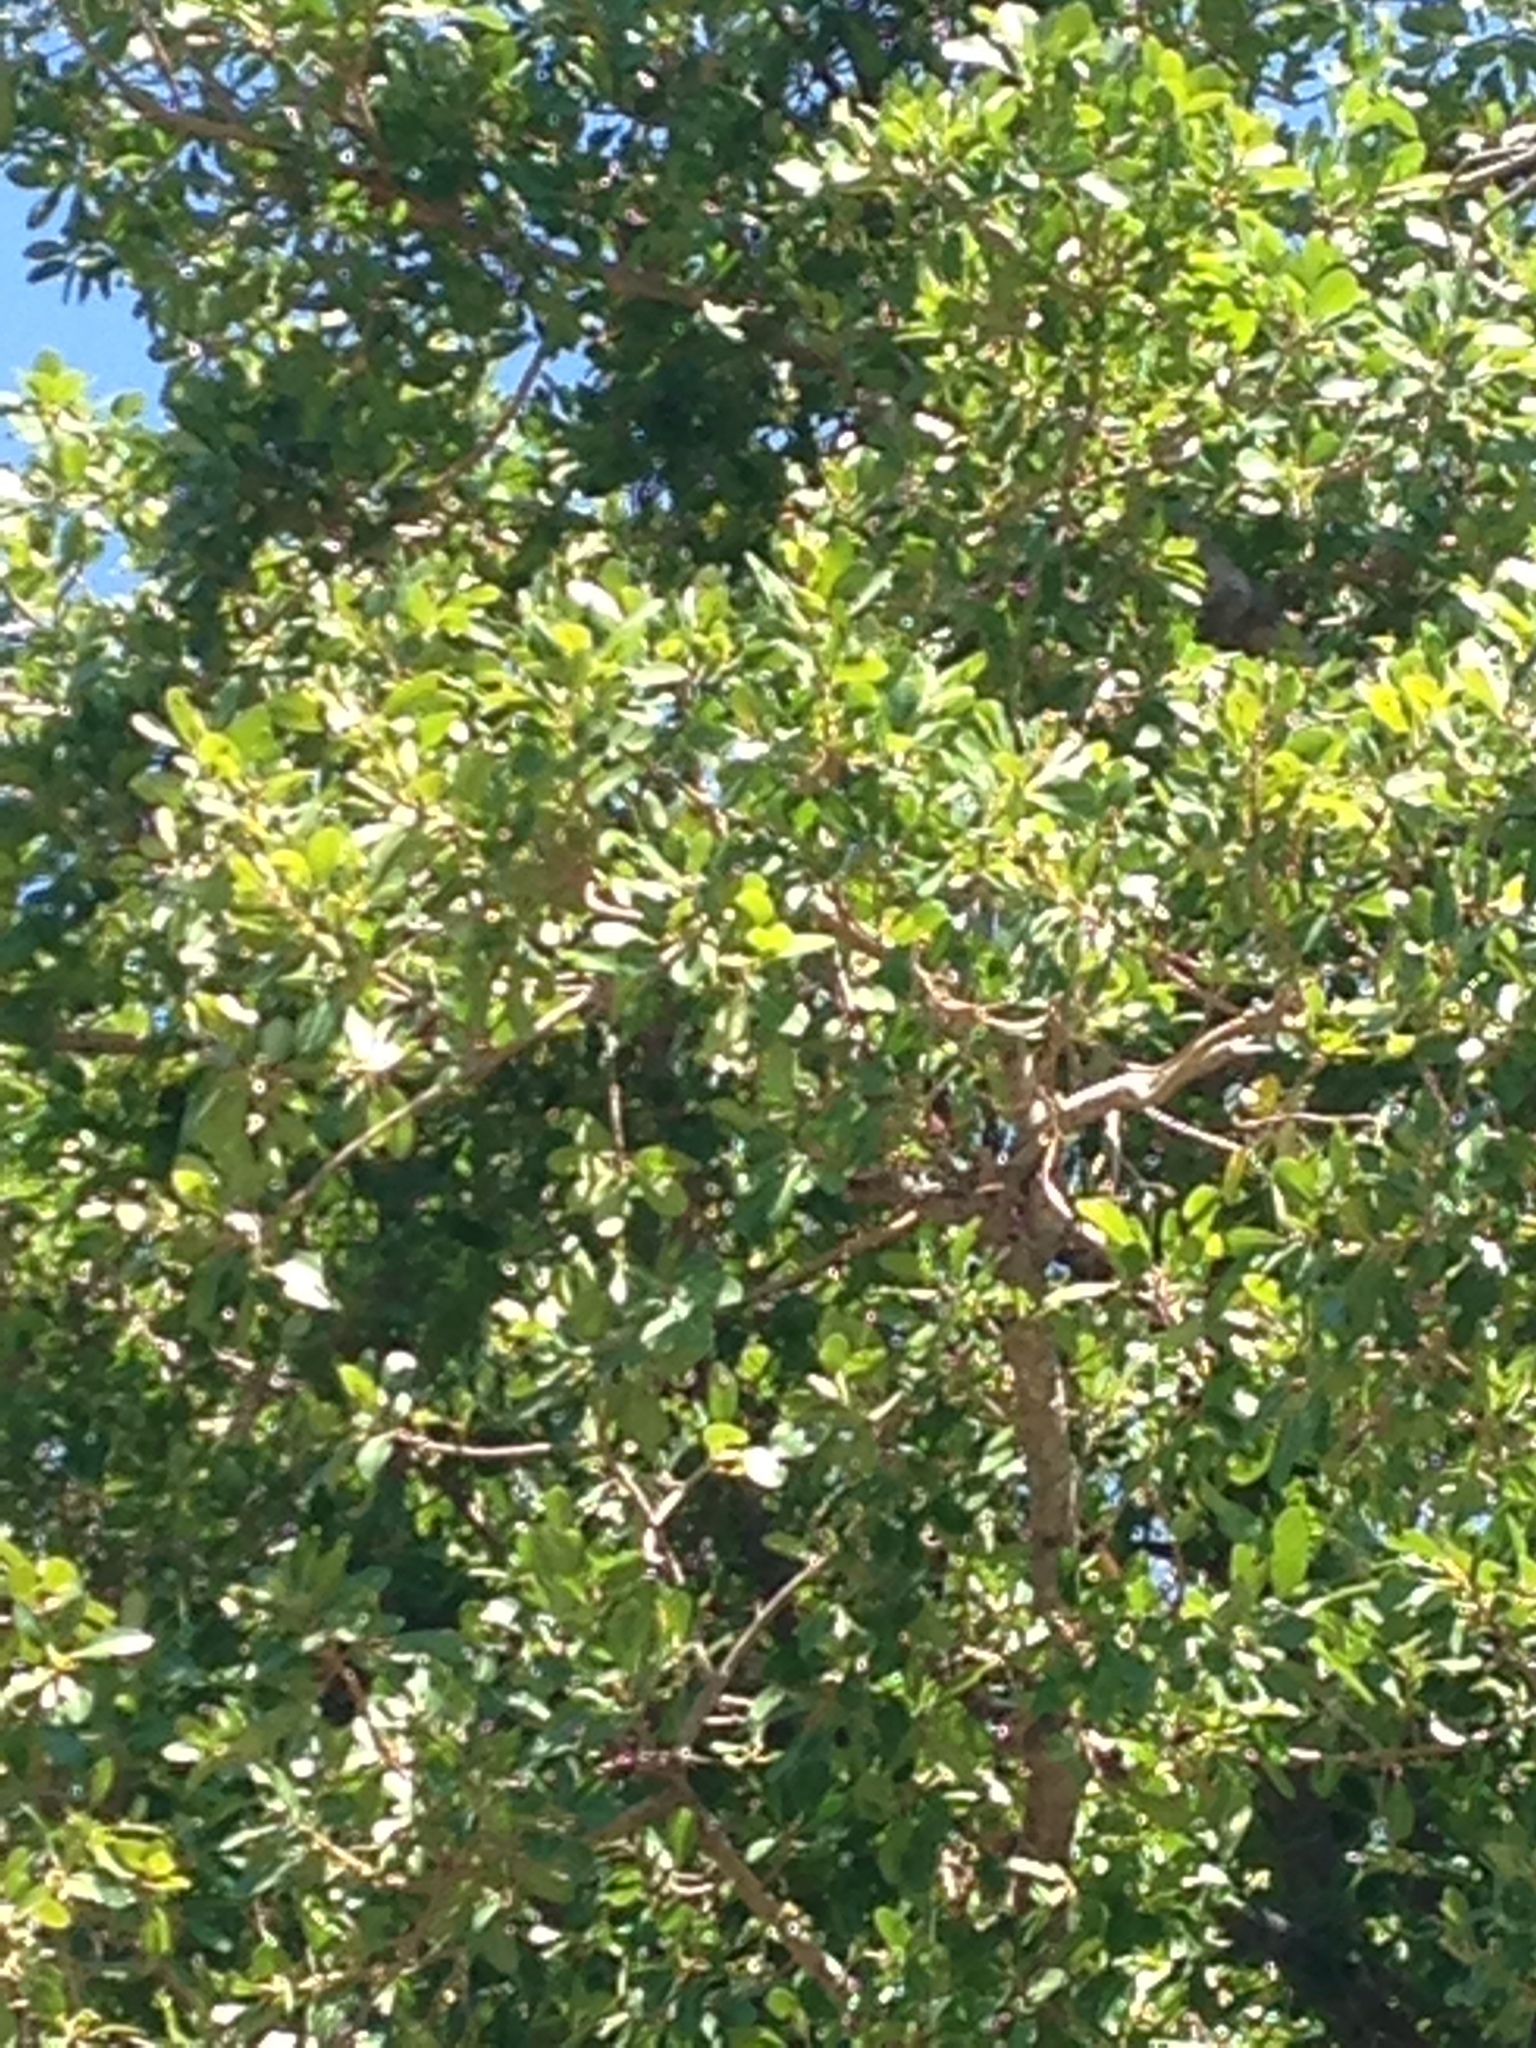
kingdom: Plantae
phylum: Tracheophyta
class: Magnoliopsida
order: Rosales
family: Moraceae
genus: Ficus
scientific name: Ficus thonningii
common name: Fig
